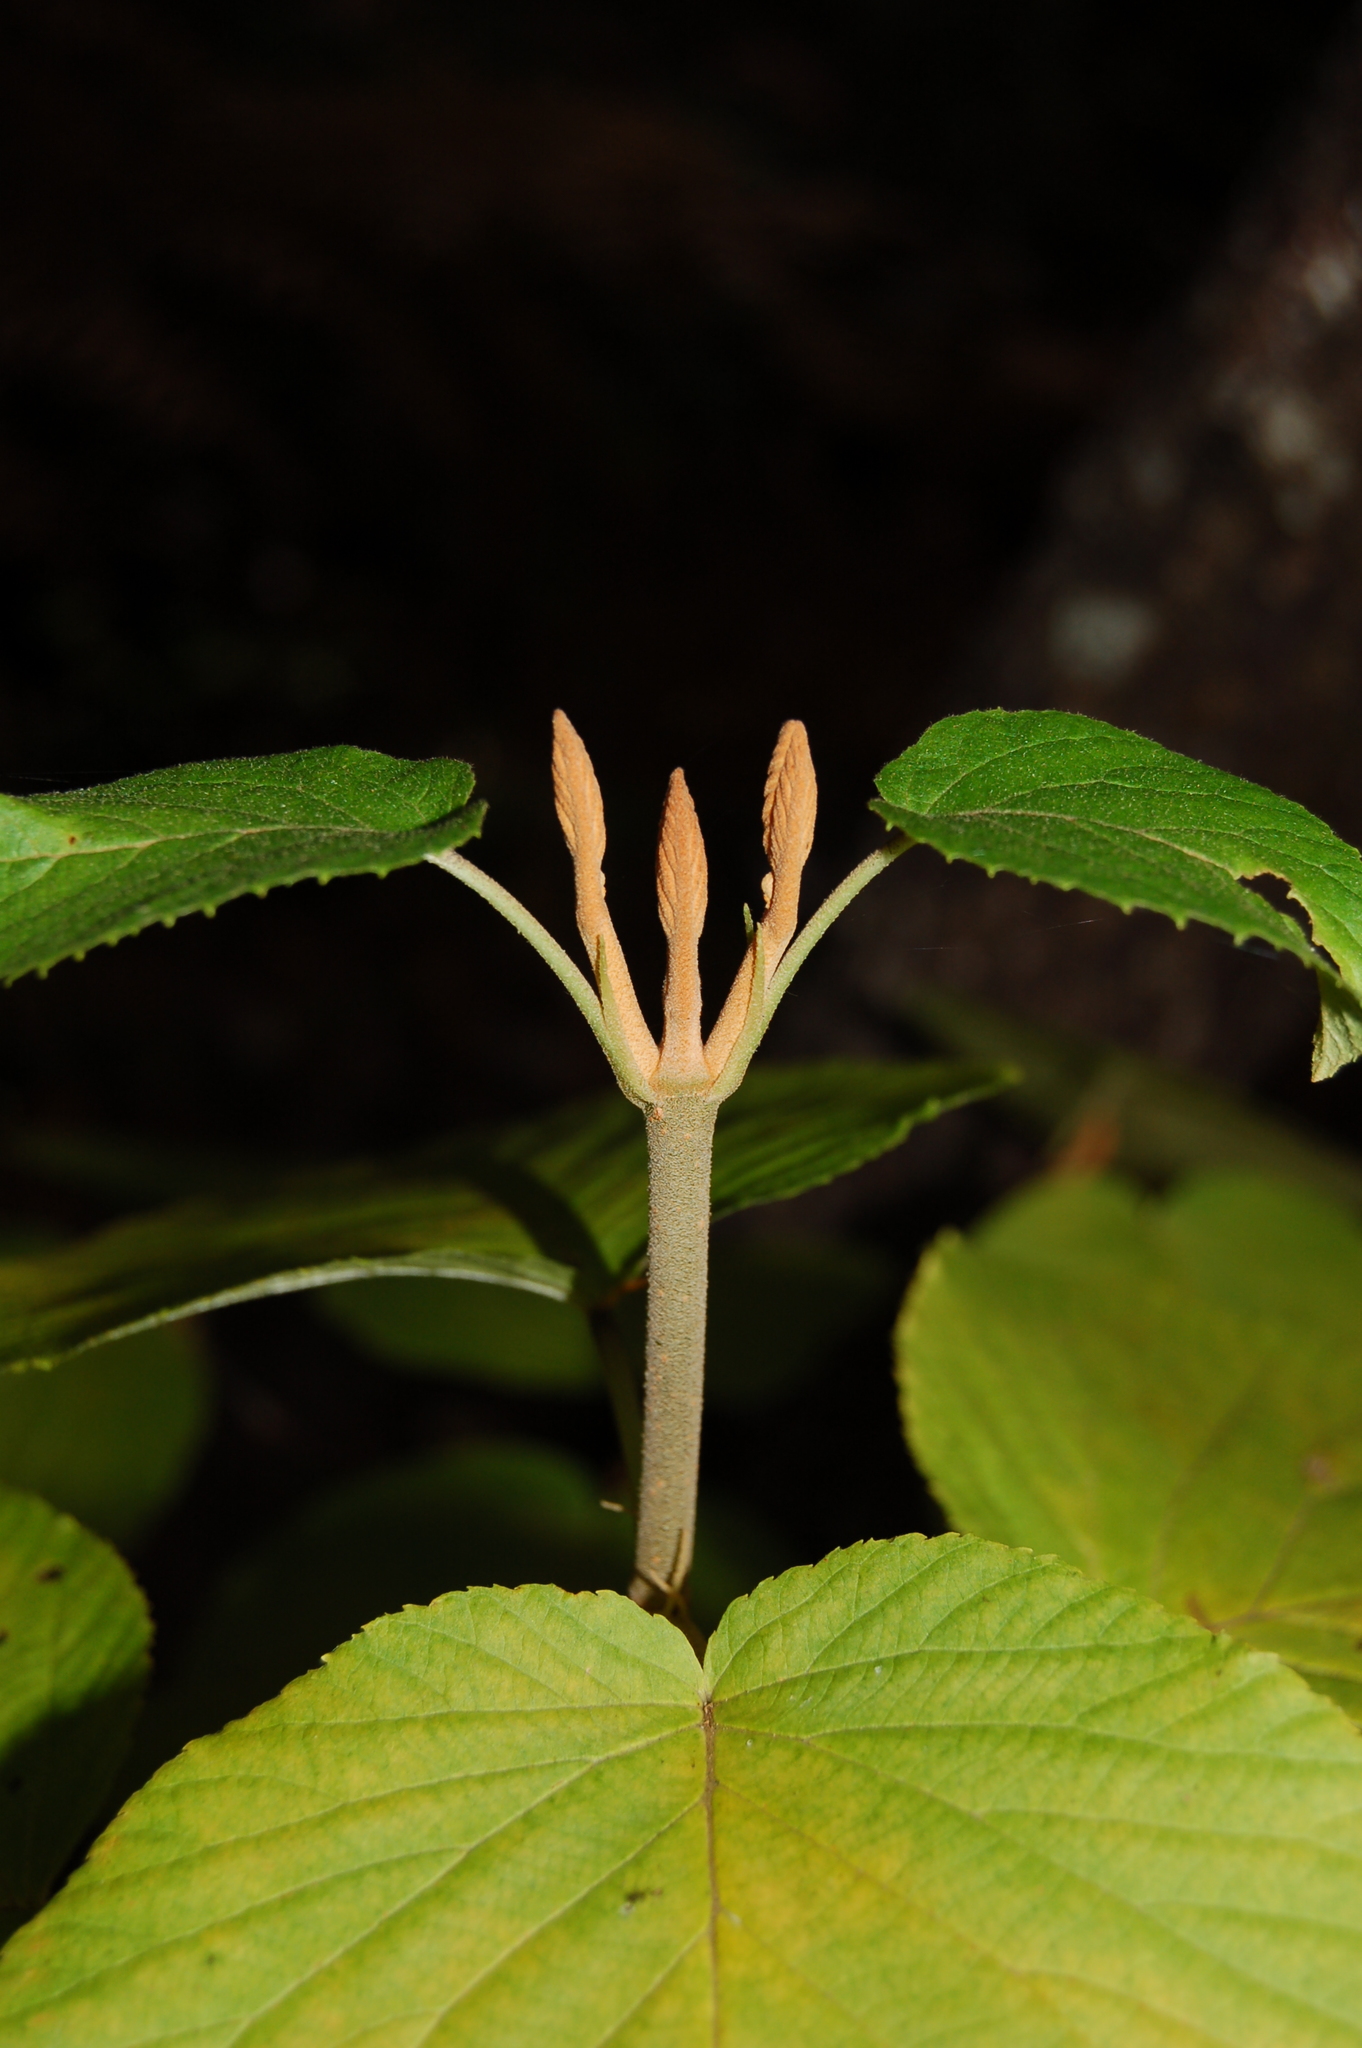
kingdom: Plantae
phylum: Tracheophyta
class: Magnoliopsida
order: Dipsacales
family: Viburnaceae
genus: Viburnum
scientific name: Viburnum lantanoides
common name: Hobblebush
